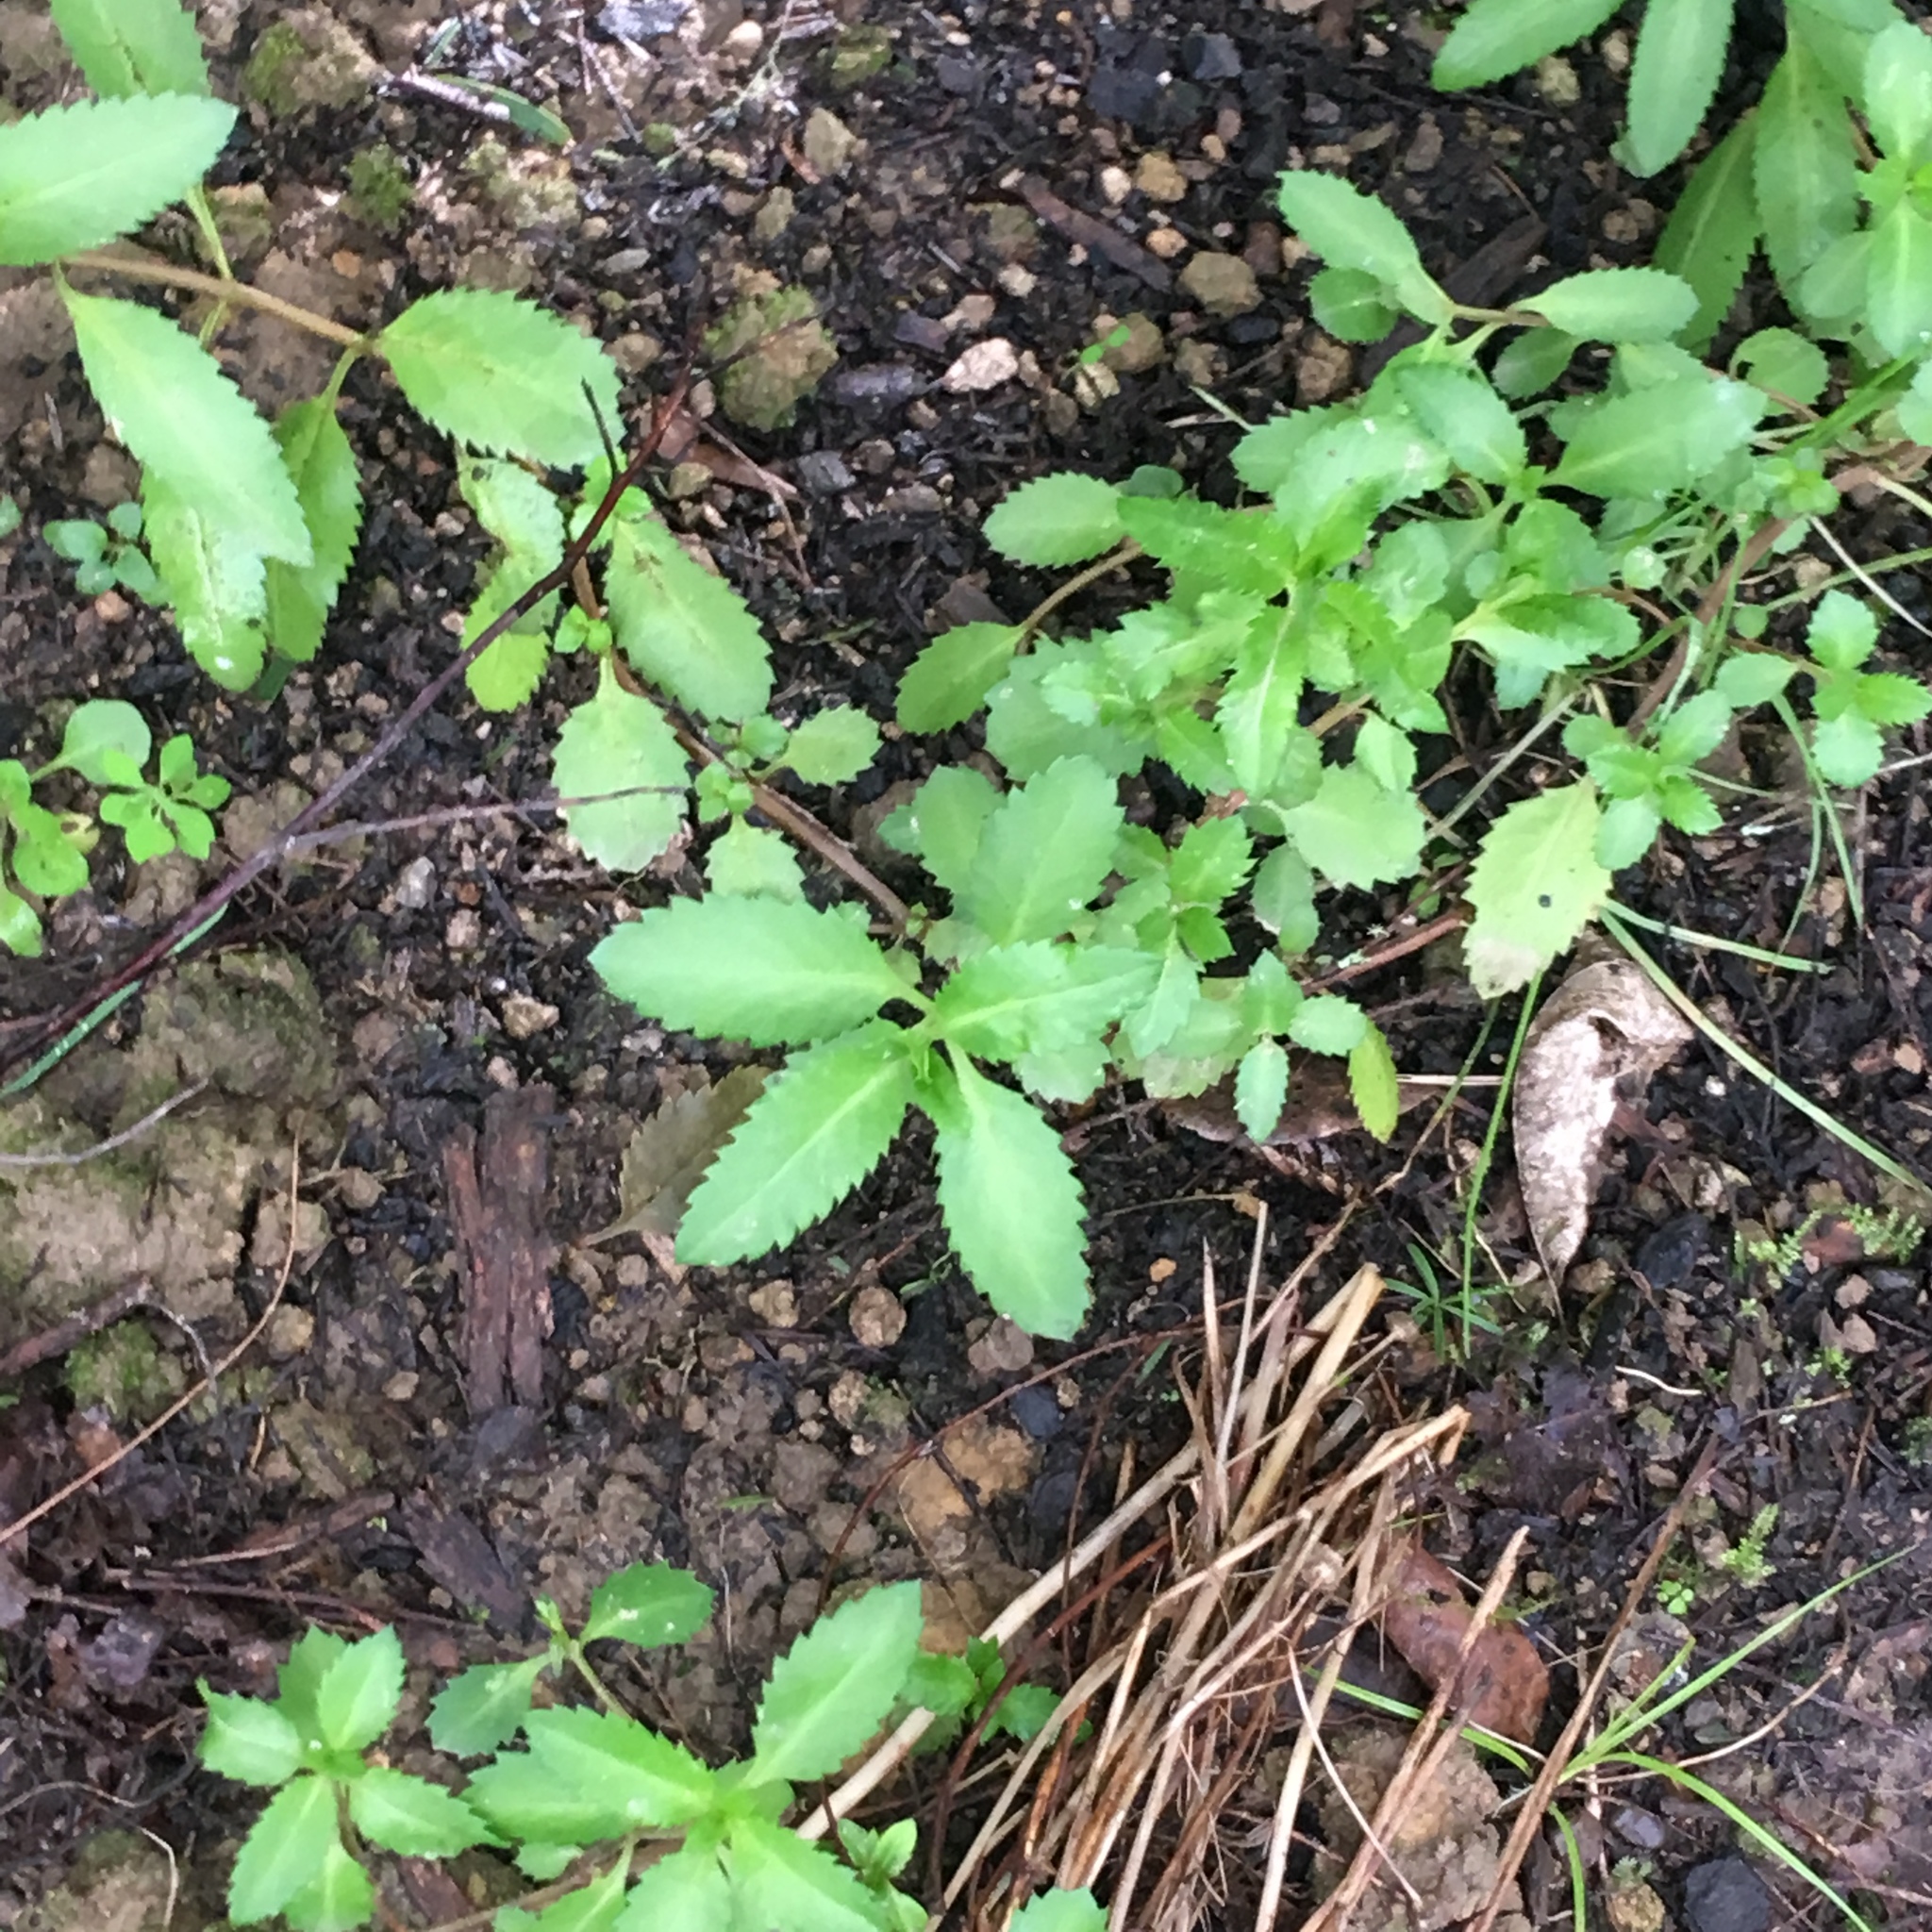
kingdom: Plantae
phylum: Tracheophyta
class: Magnoliopsida
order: Saxifragales
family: Haloragaceae
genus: Haloragis
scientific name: Haloragis erecta
